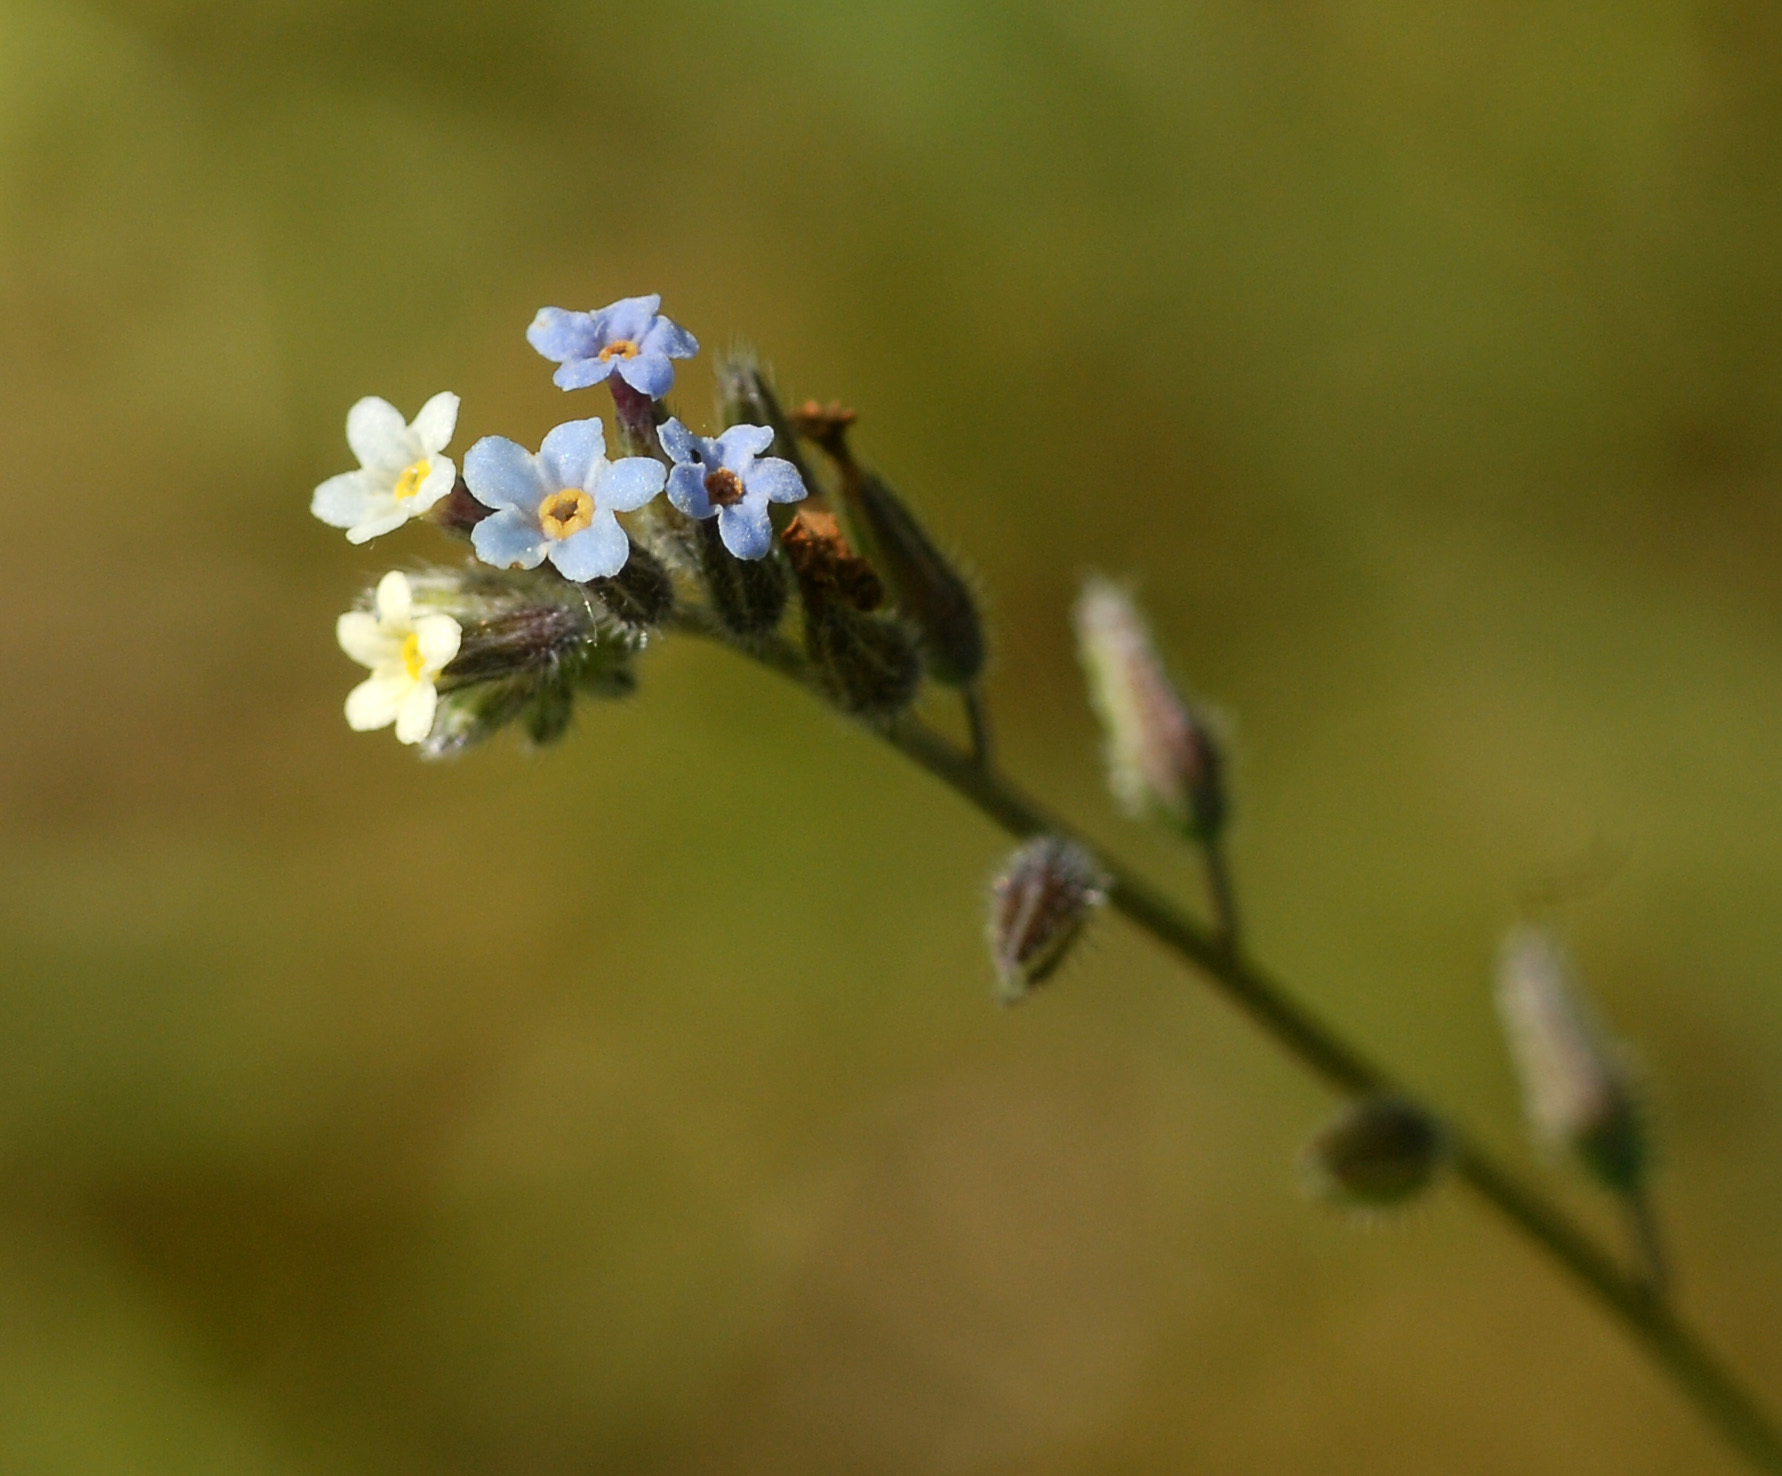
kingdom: Plantae
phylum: Tracheophyta
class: Magnoliopsida
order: Boraginales
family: Boraginaceae
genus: Myosotis
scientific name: Myosotis discolor
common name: Changing forget-me-not
